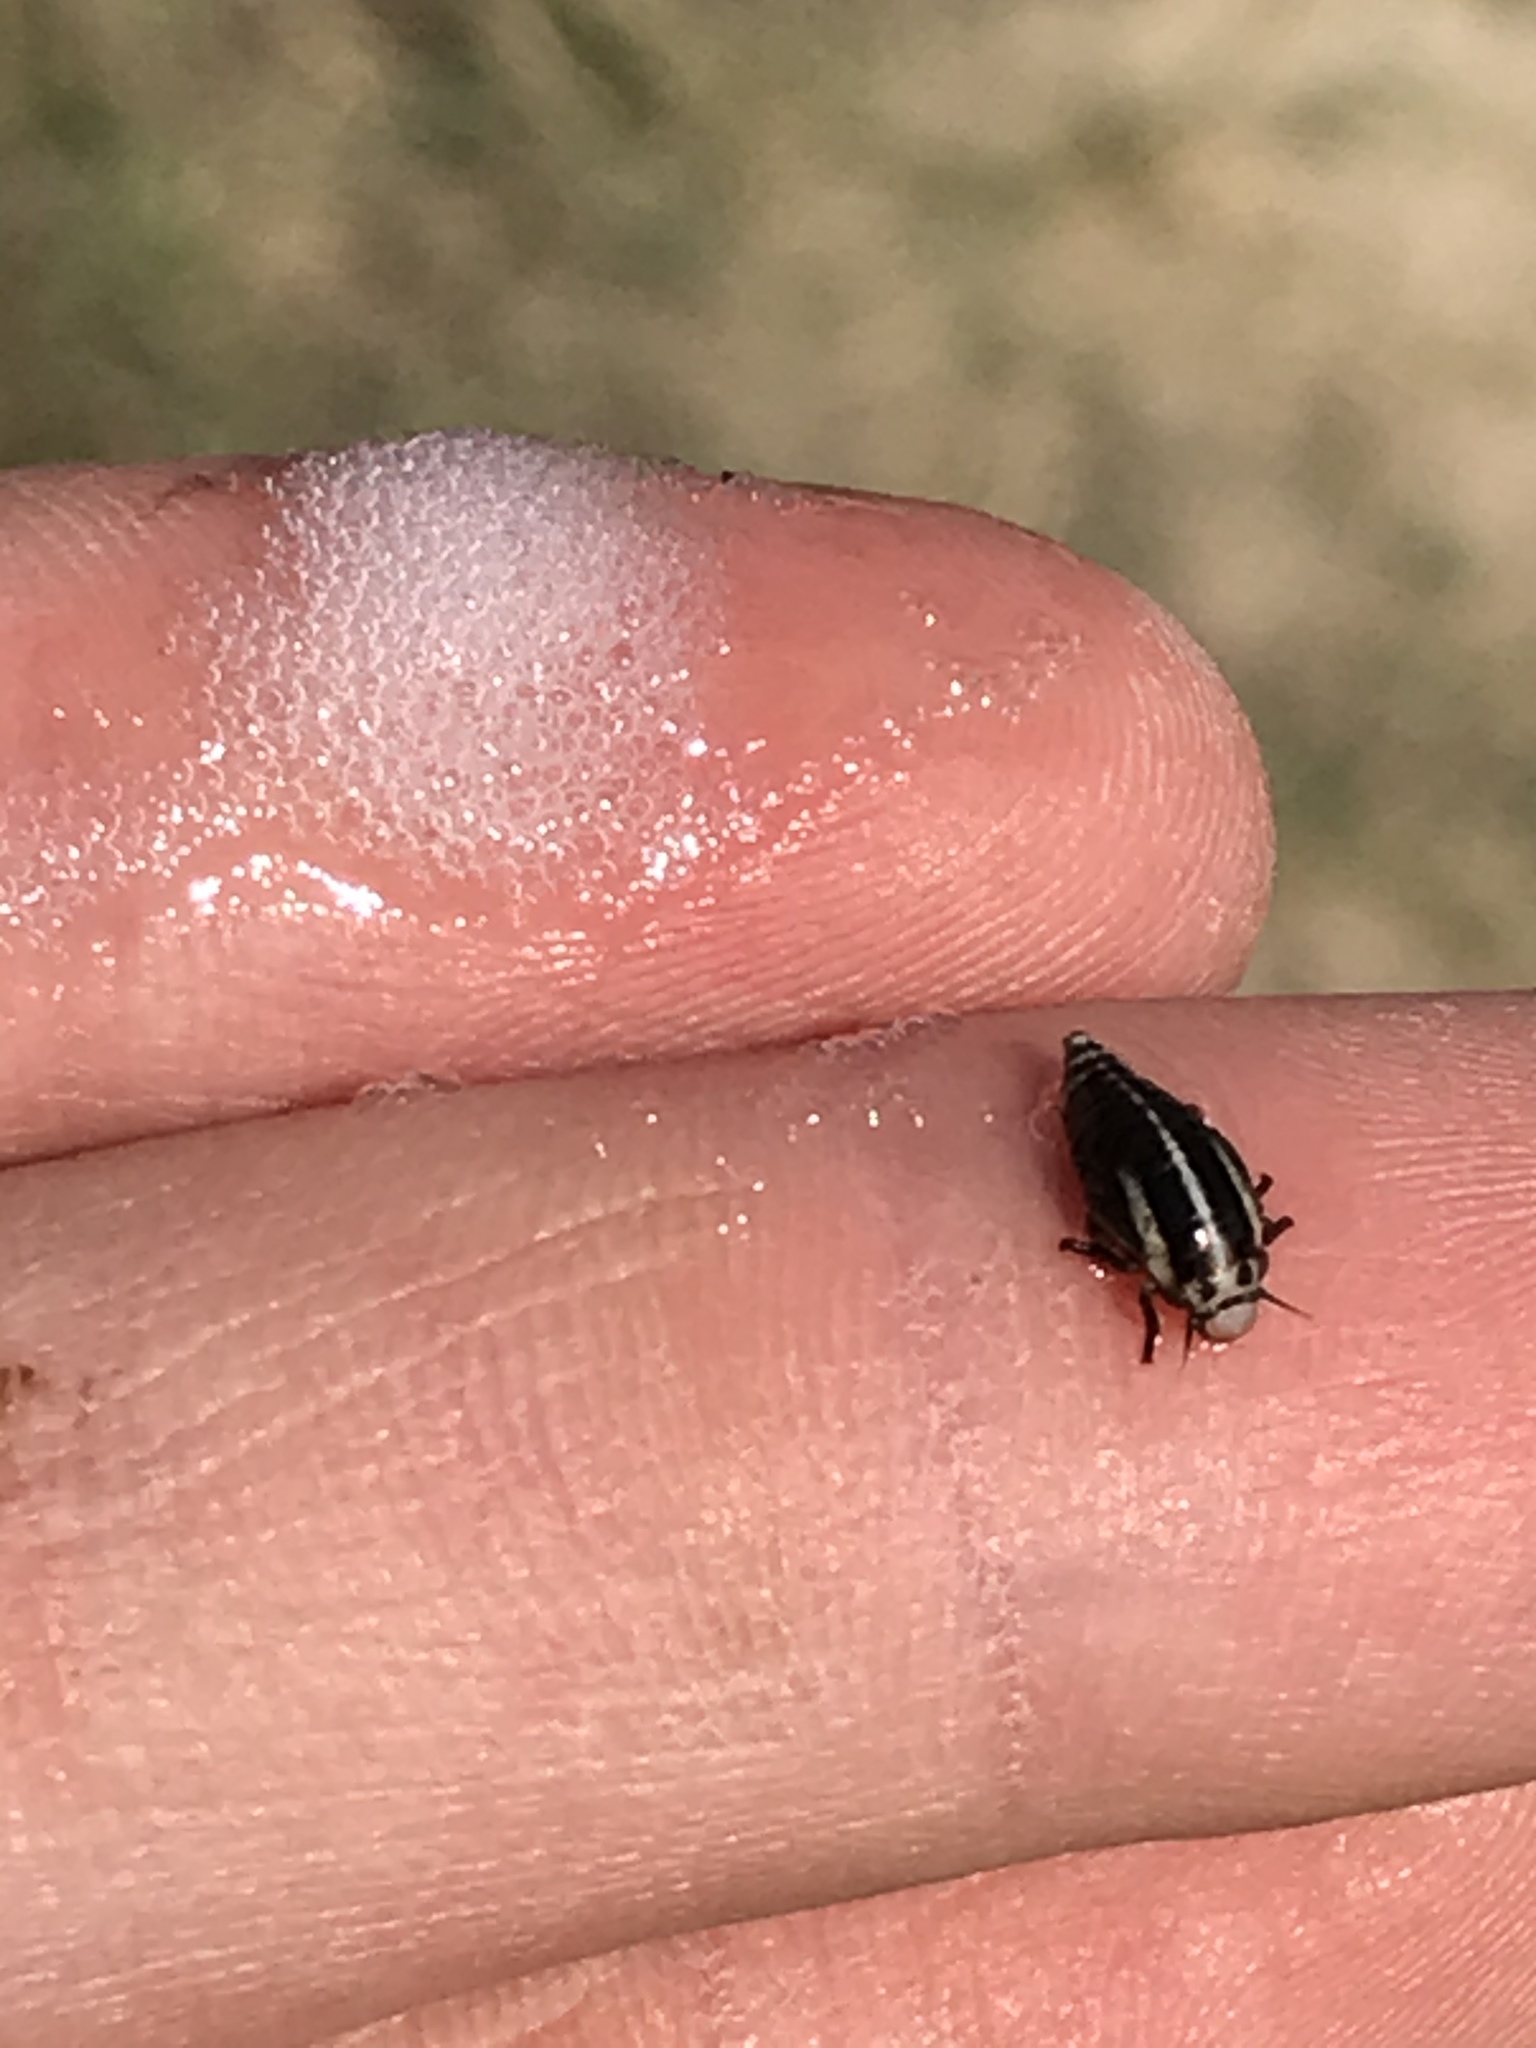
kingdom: Animalia
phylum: Arthropoda
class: Insecta
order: Hemiptera
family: Aphrophoridae
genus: Lepyronia
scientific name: Lepyronia gibbosa
